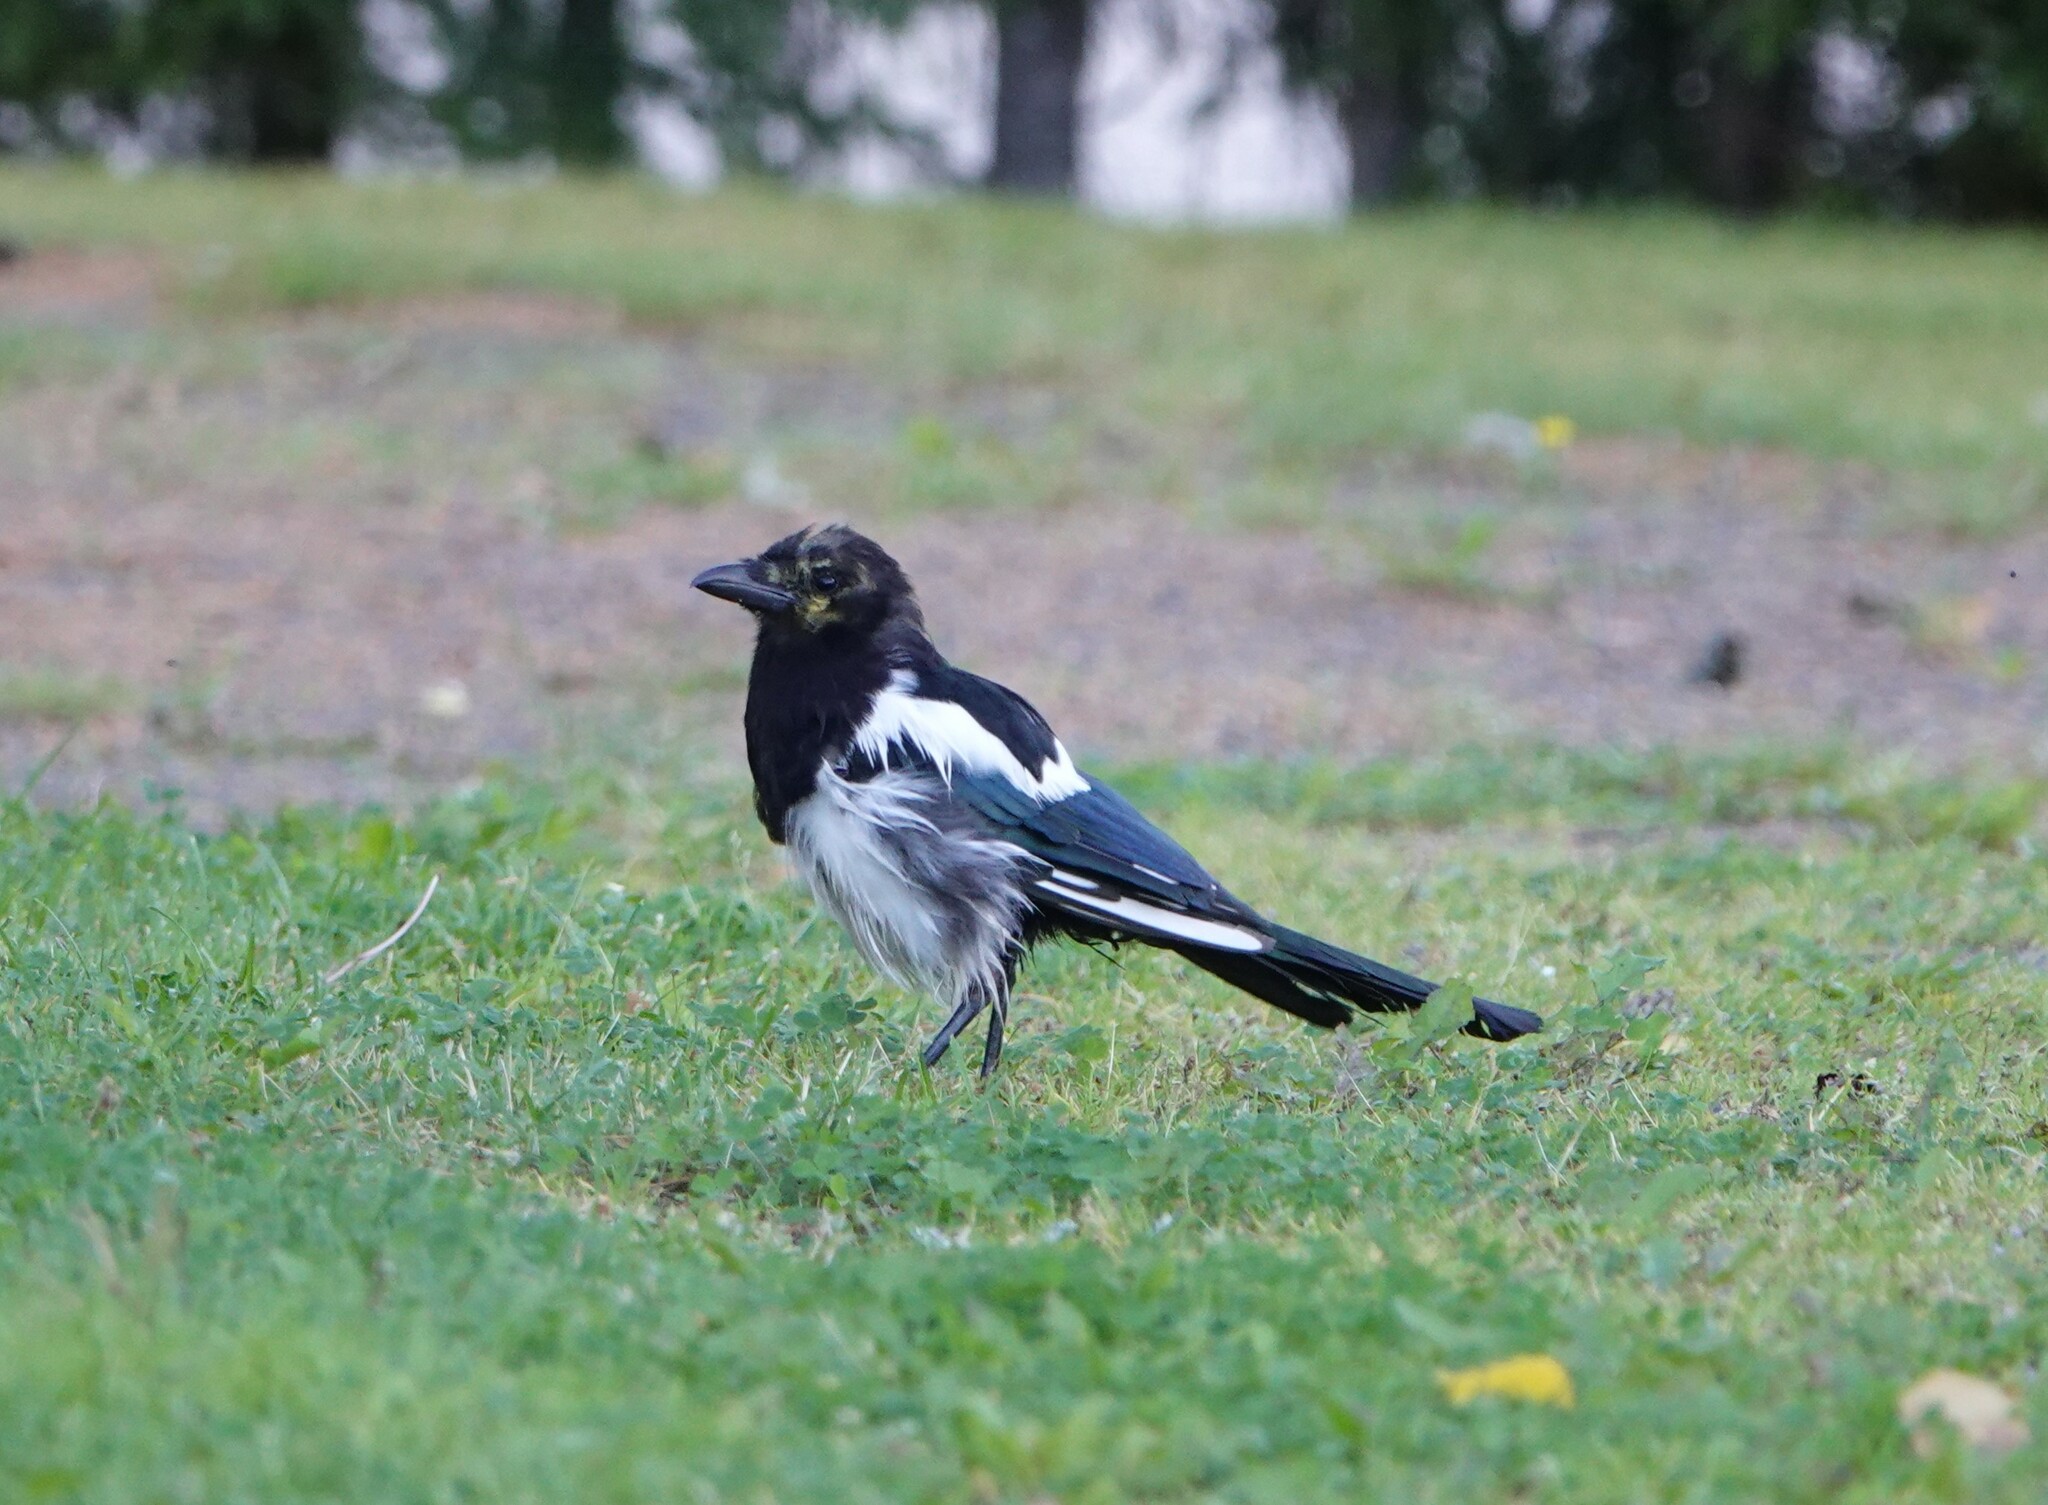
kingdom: Animalia
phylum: Chordata
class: Aves
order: Passeriformes
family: Corvidae
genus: Pica
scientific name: Pica pica
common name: Eurasian magpie
